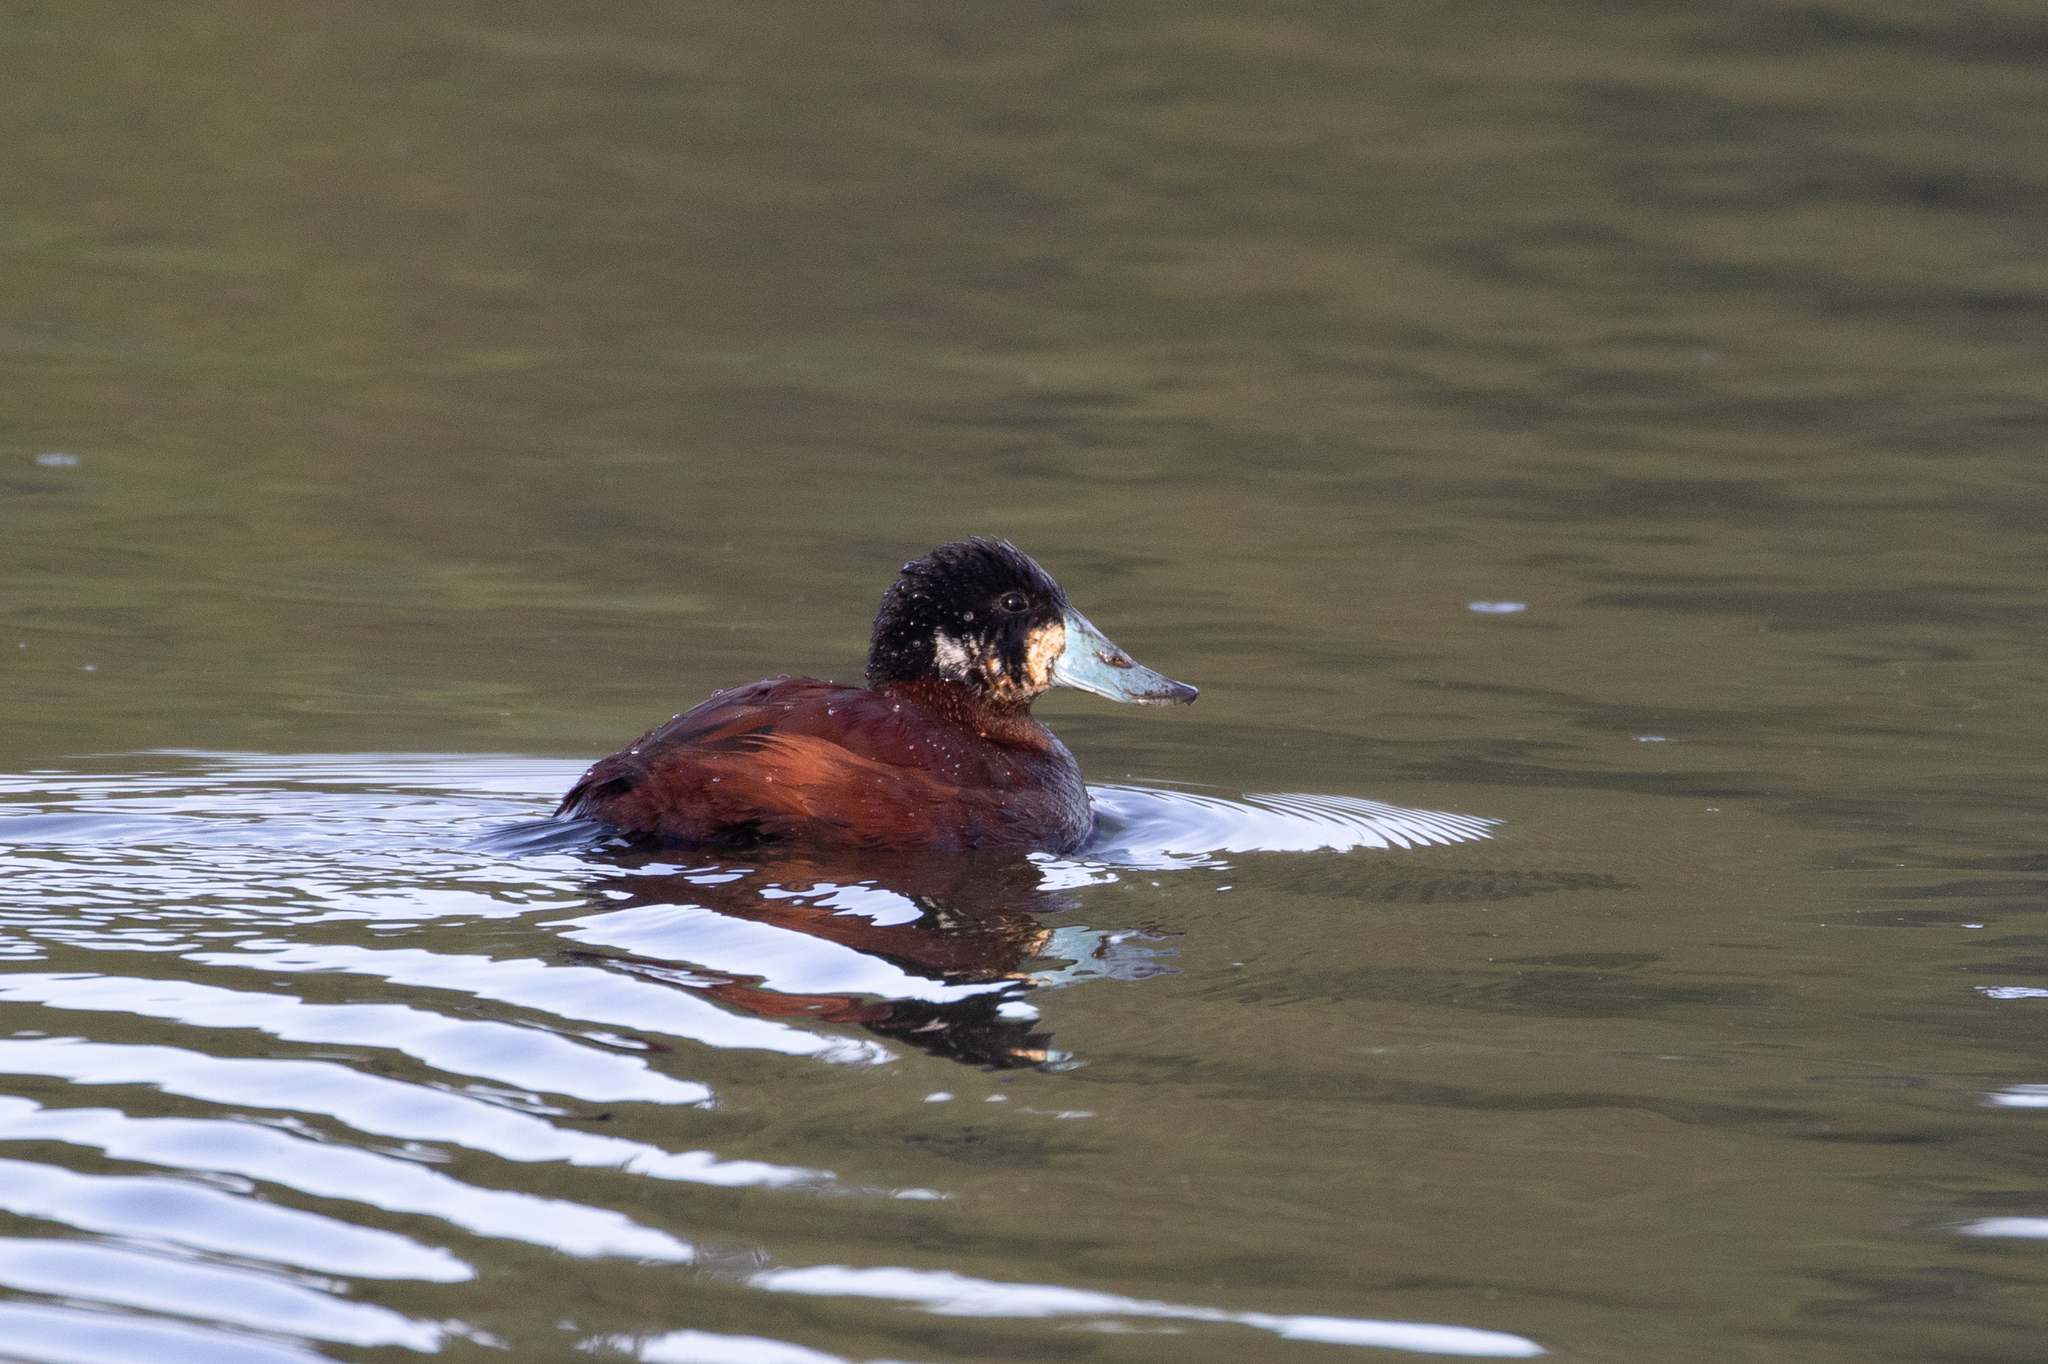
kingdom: Animalia
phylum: Chordata
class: Aves
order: Anseriformes
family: Anatidae
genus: Oxyura
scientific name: Oxyura ferruginea
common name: Andean duck
